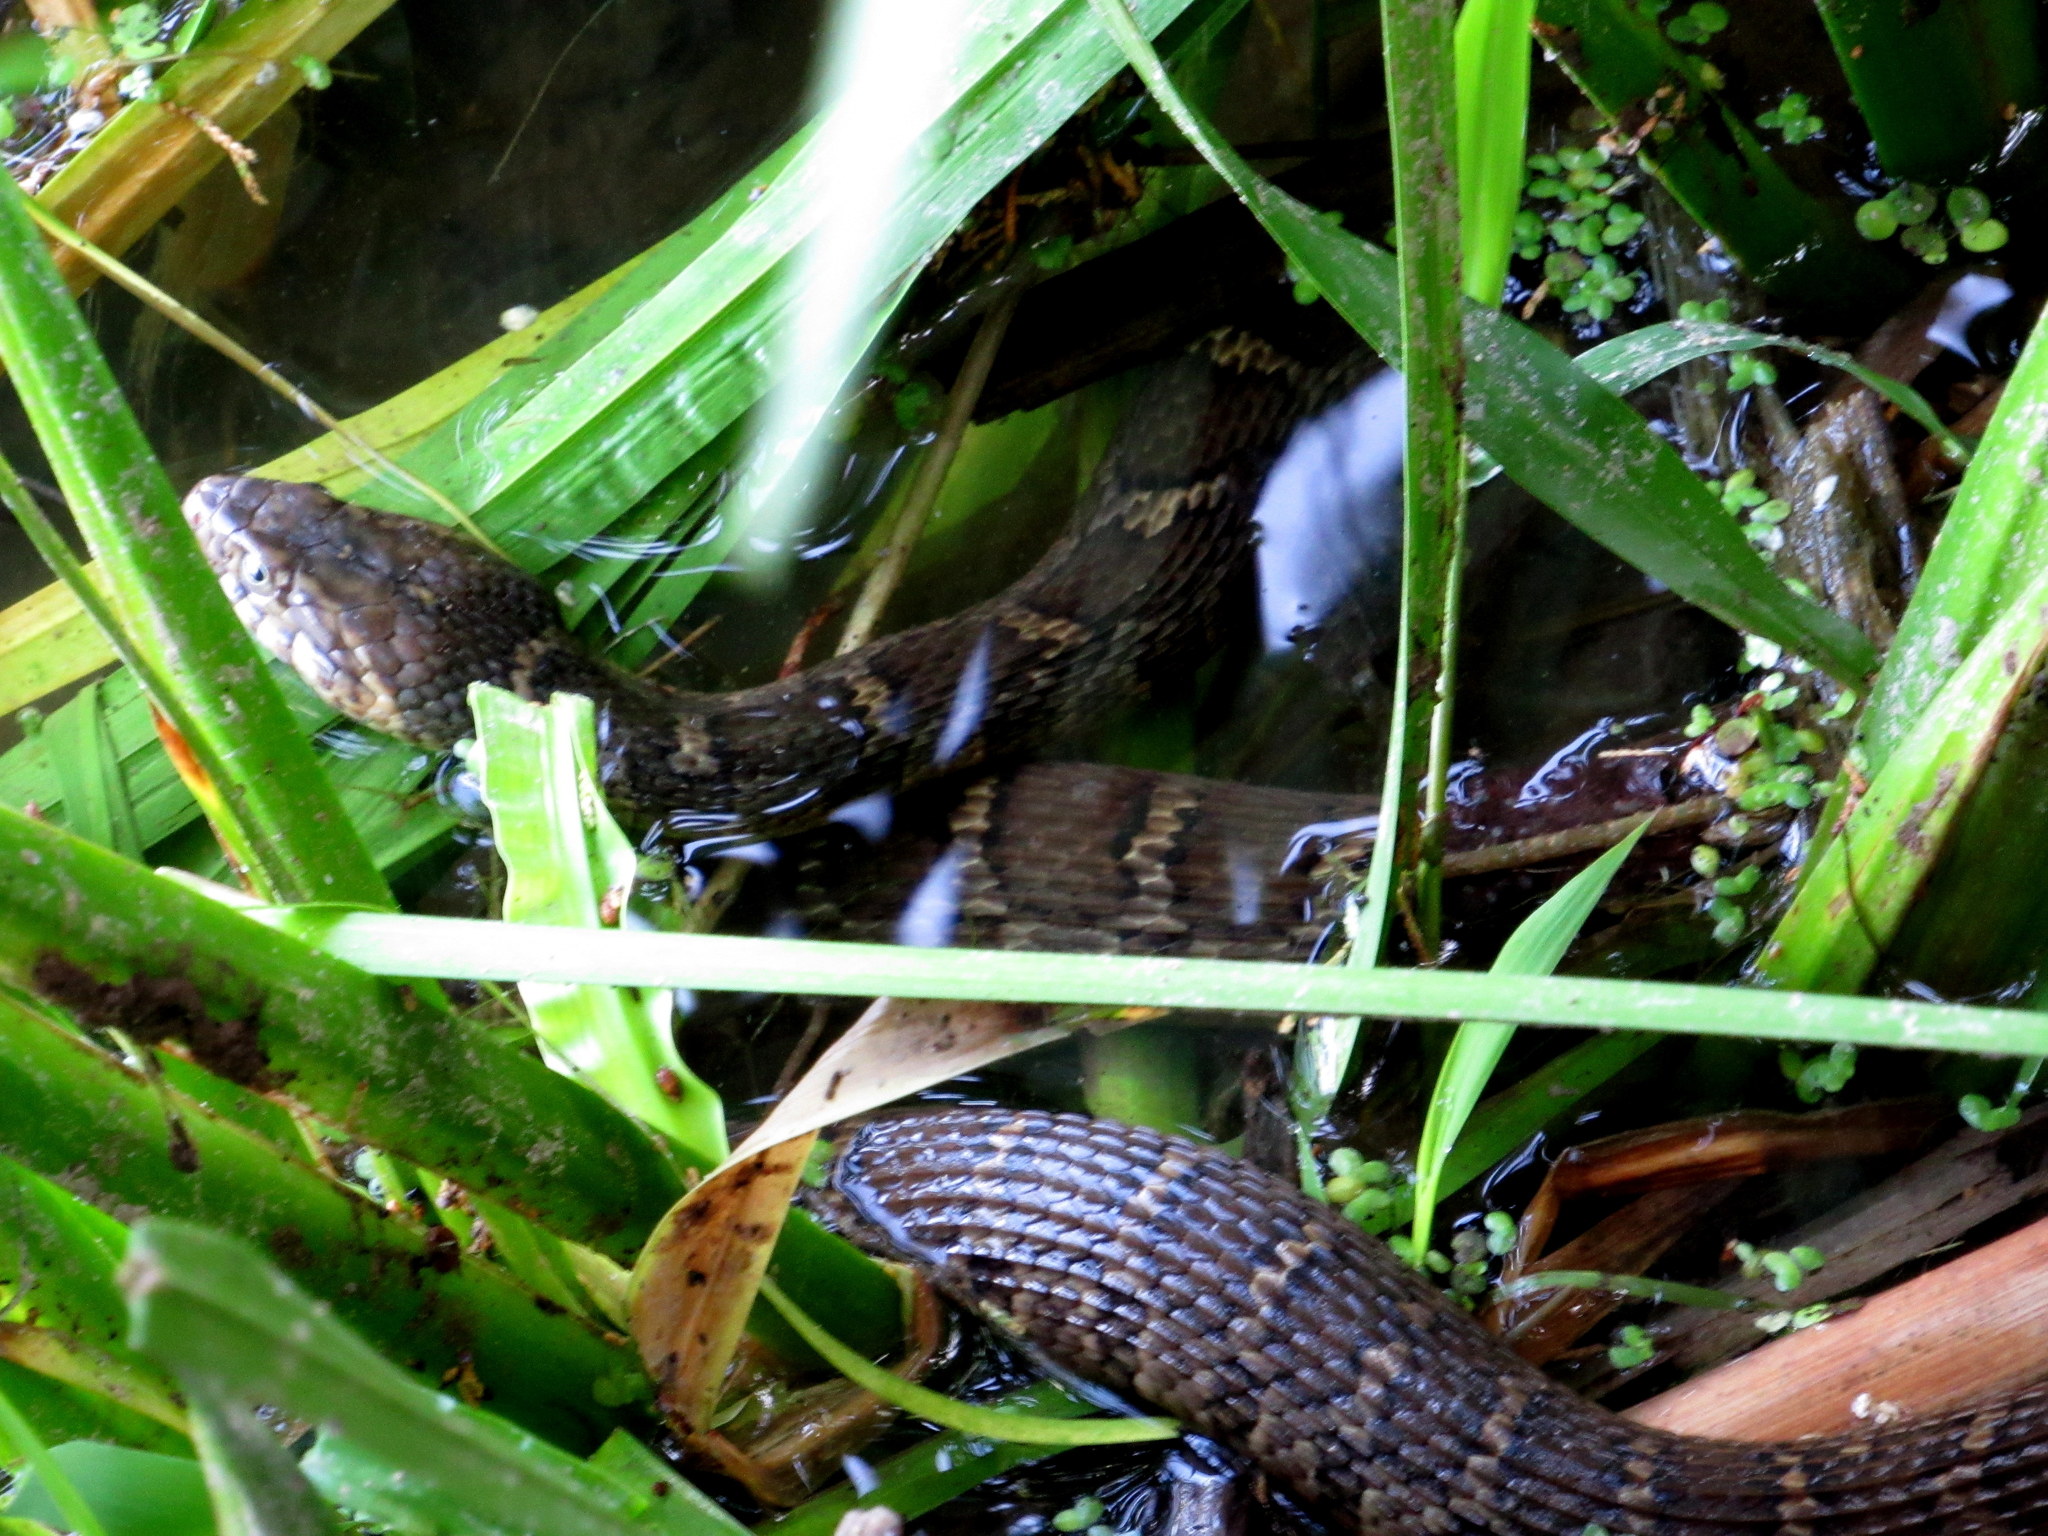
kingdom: Animalia
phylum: Chordata
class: Squamata
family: Colubridae
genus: Nerodia
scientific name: Nerodia erythrogaster
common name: Plainbelly water snake
